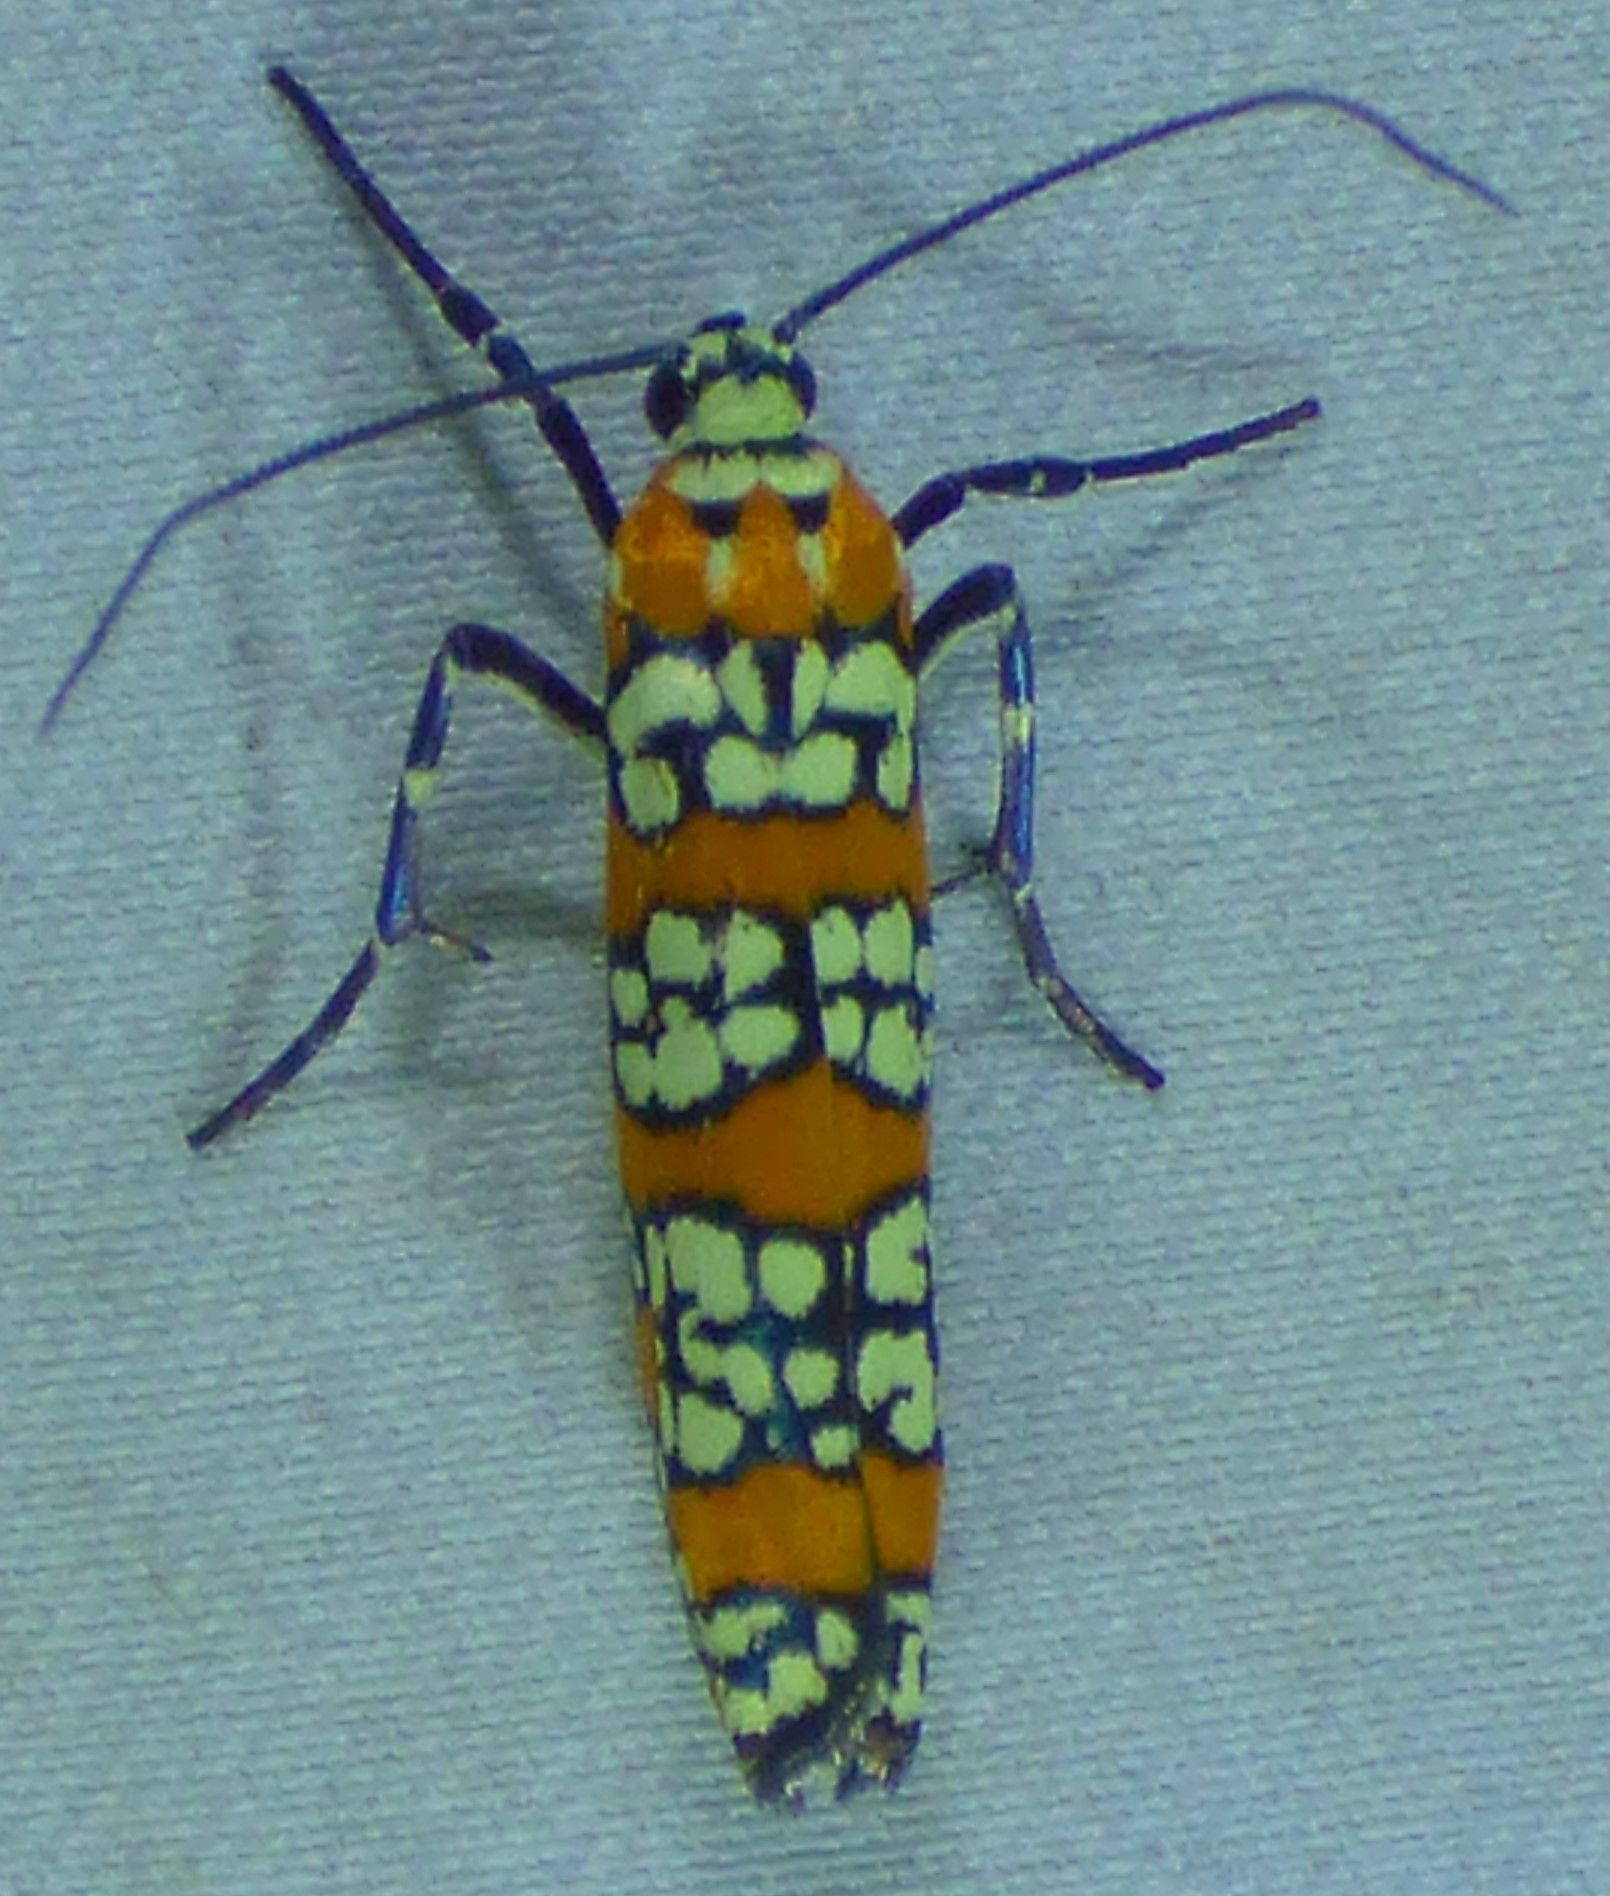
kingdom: Animalia
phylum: Arthropoda
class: Insecta
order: Lepidoptera
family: Attevidae
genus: Atteva
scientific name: Atteva punctella
